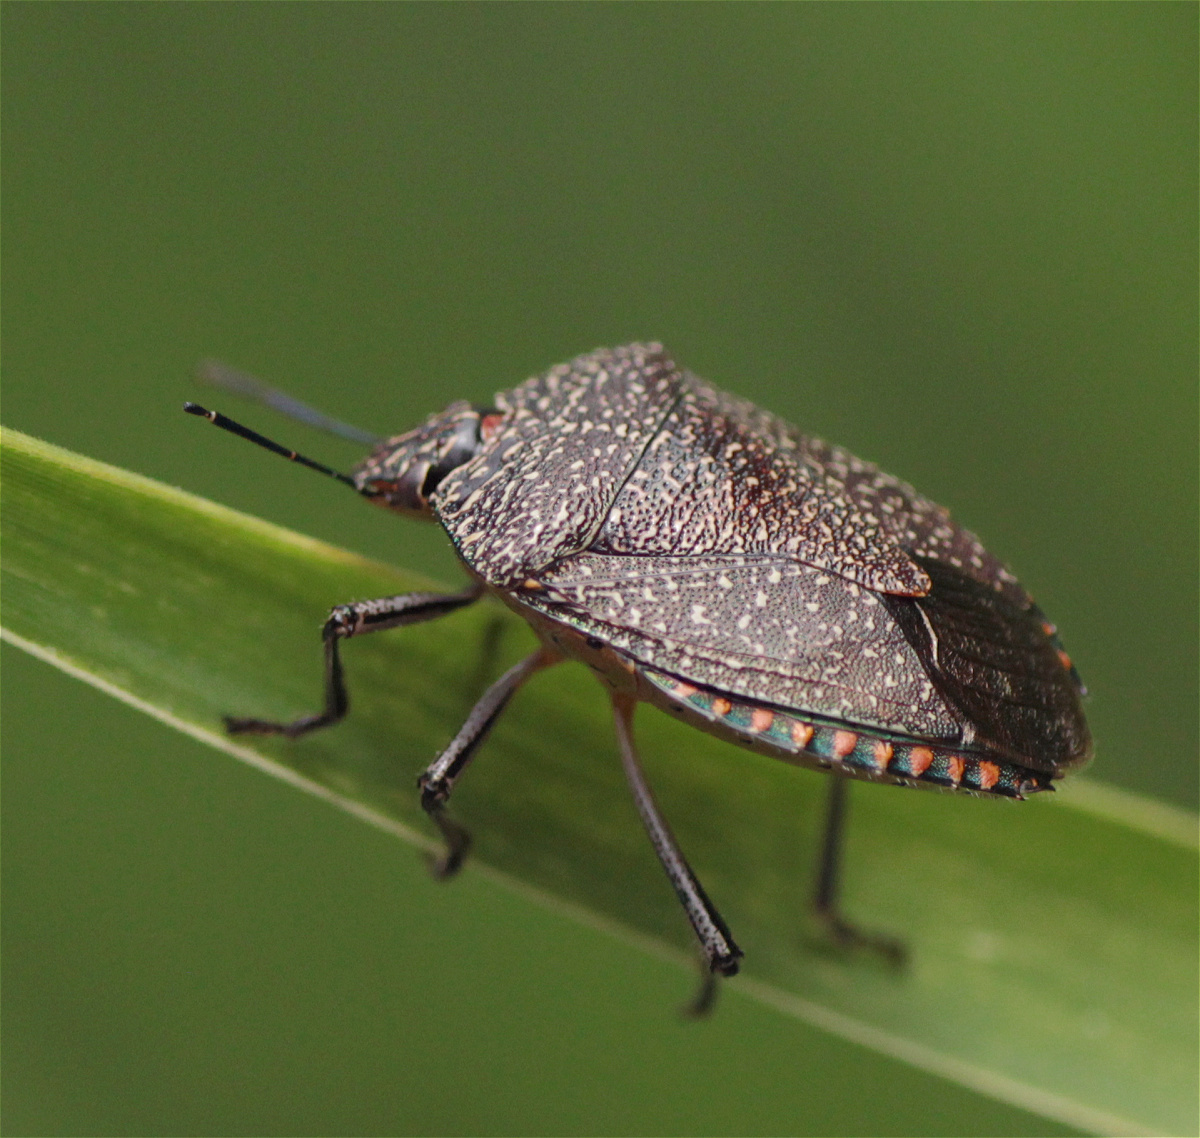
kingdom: Animalia
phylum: Arthropoda
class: Insecta
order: Hemiptera
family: Pentatomidae
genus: Pellaea
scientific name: Pellaea stictica
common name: Stink bug
